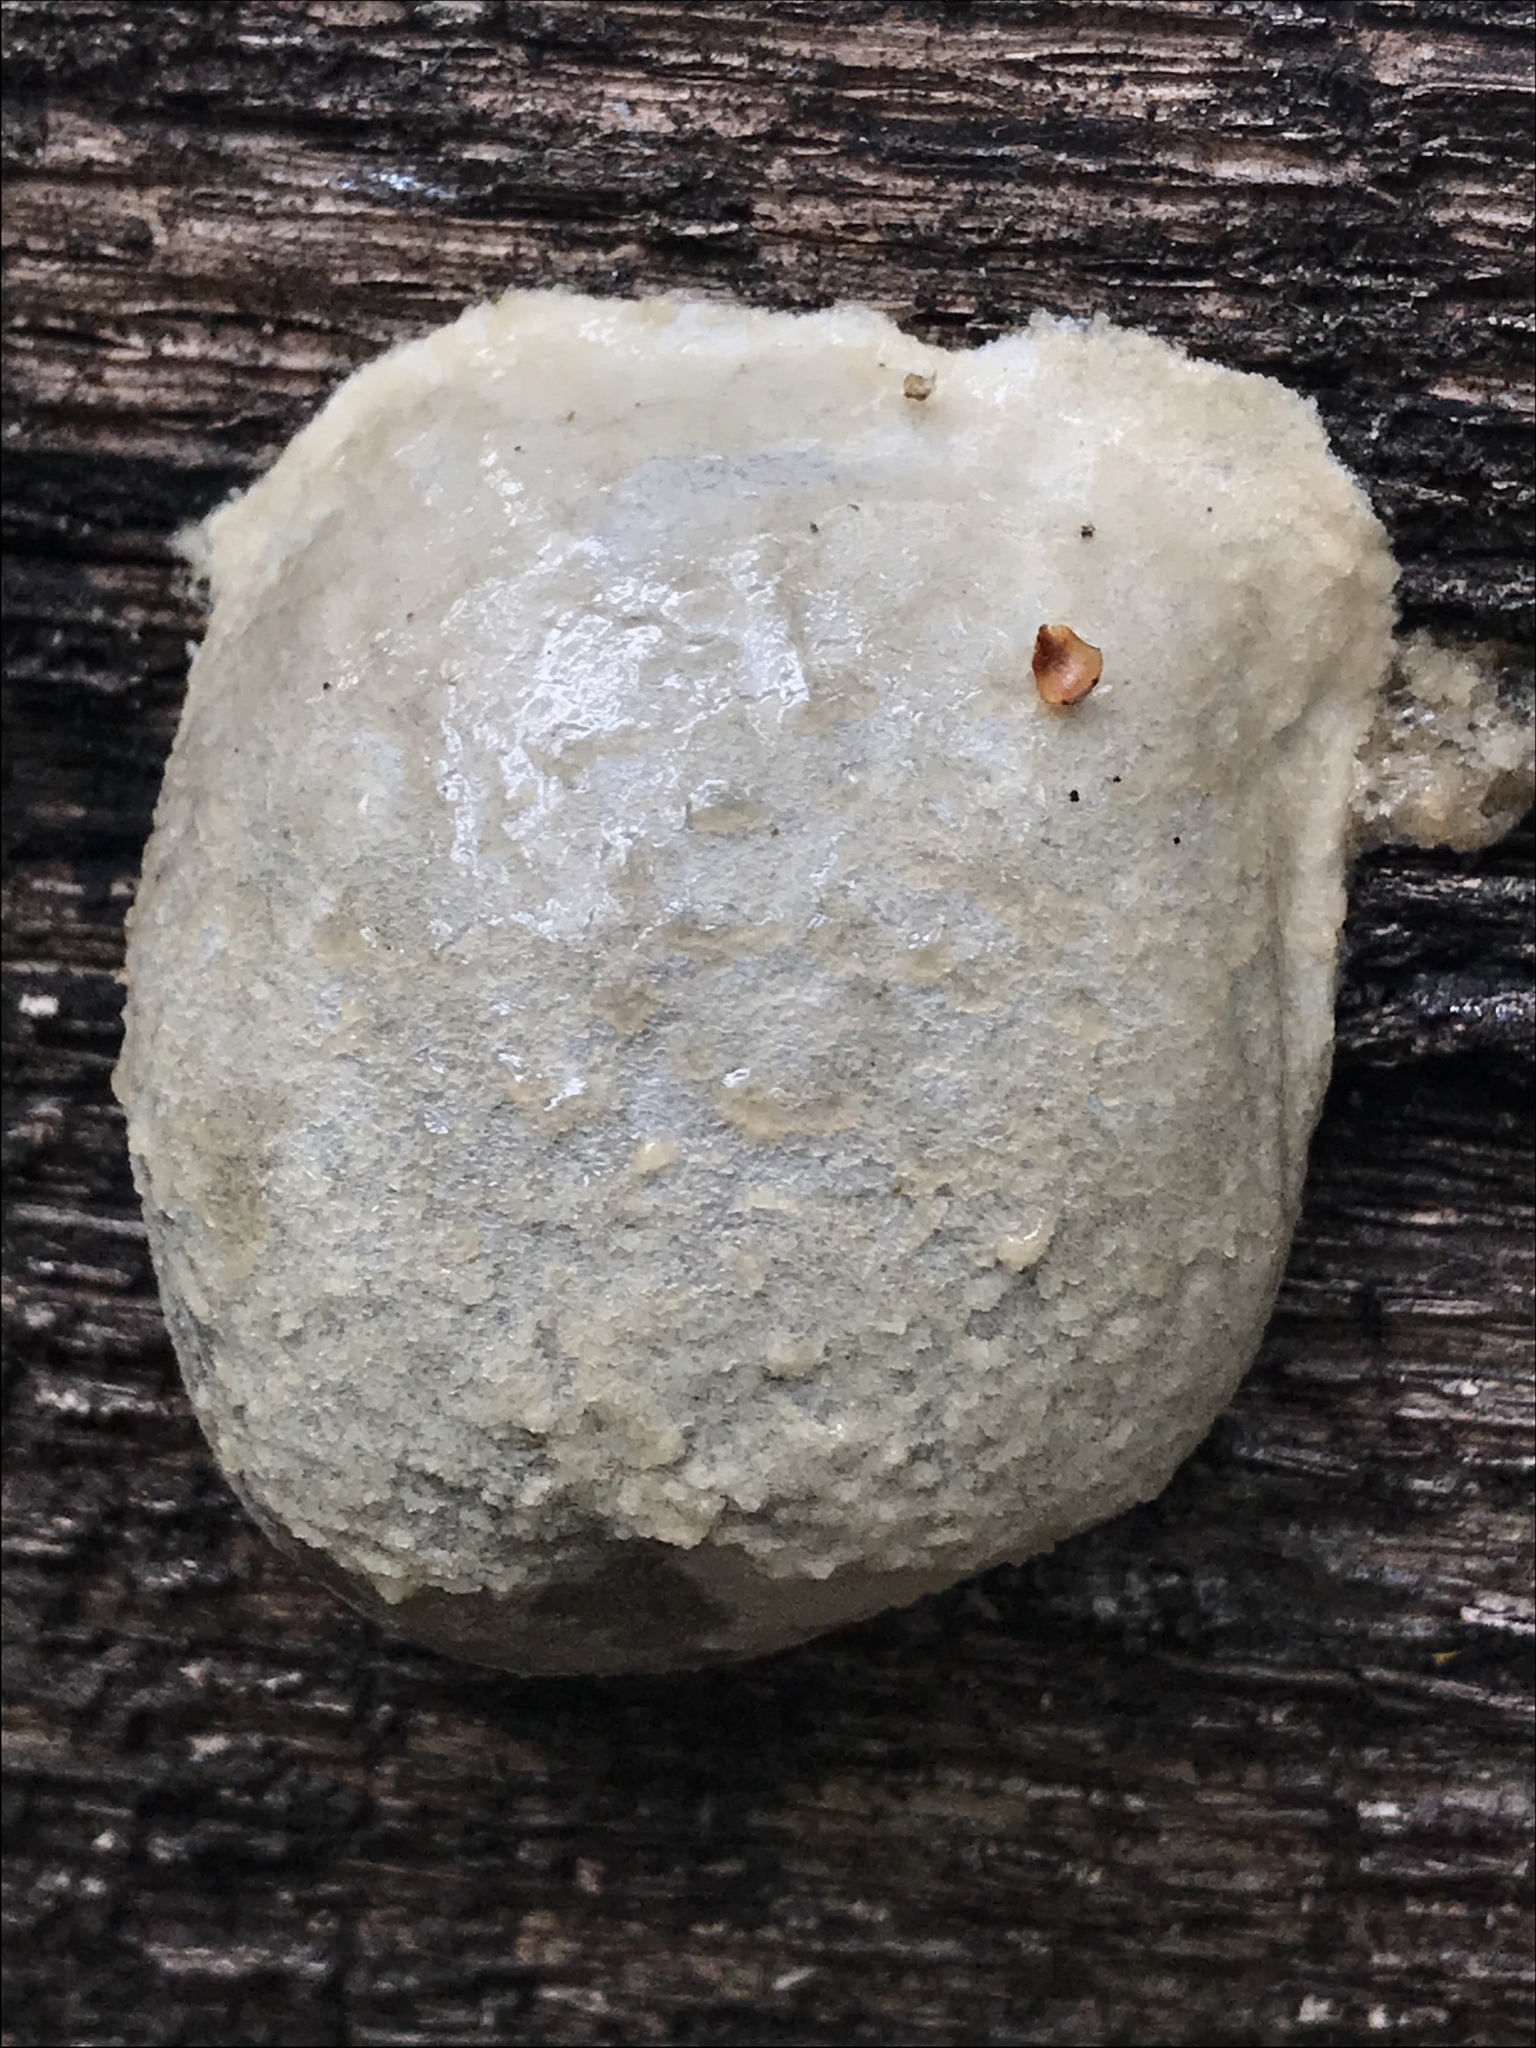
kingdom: Protozoa
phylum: Mycetozoa
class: Myxomycetes
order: Cribrariales
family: Tubiferaceae
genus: Reticularia
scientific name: Reticularia lycoperdon
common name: False puffball
